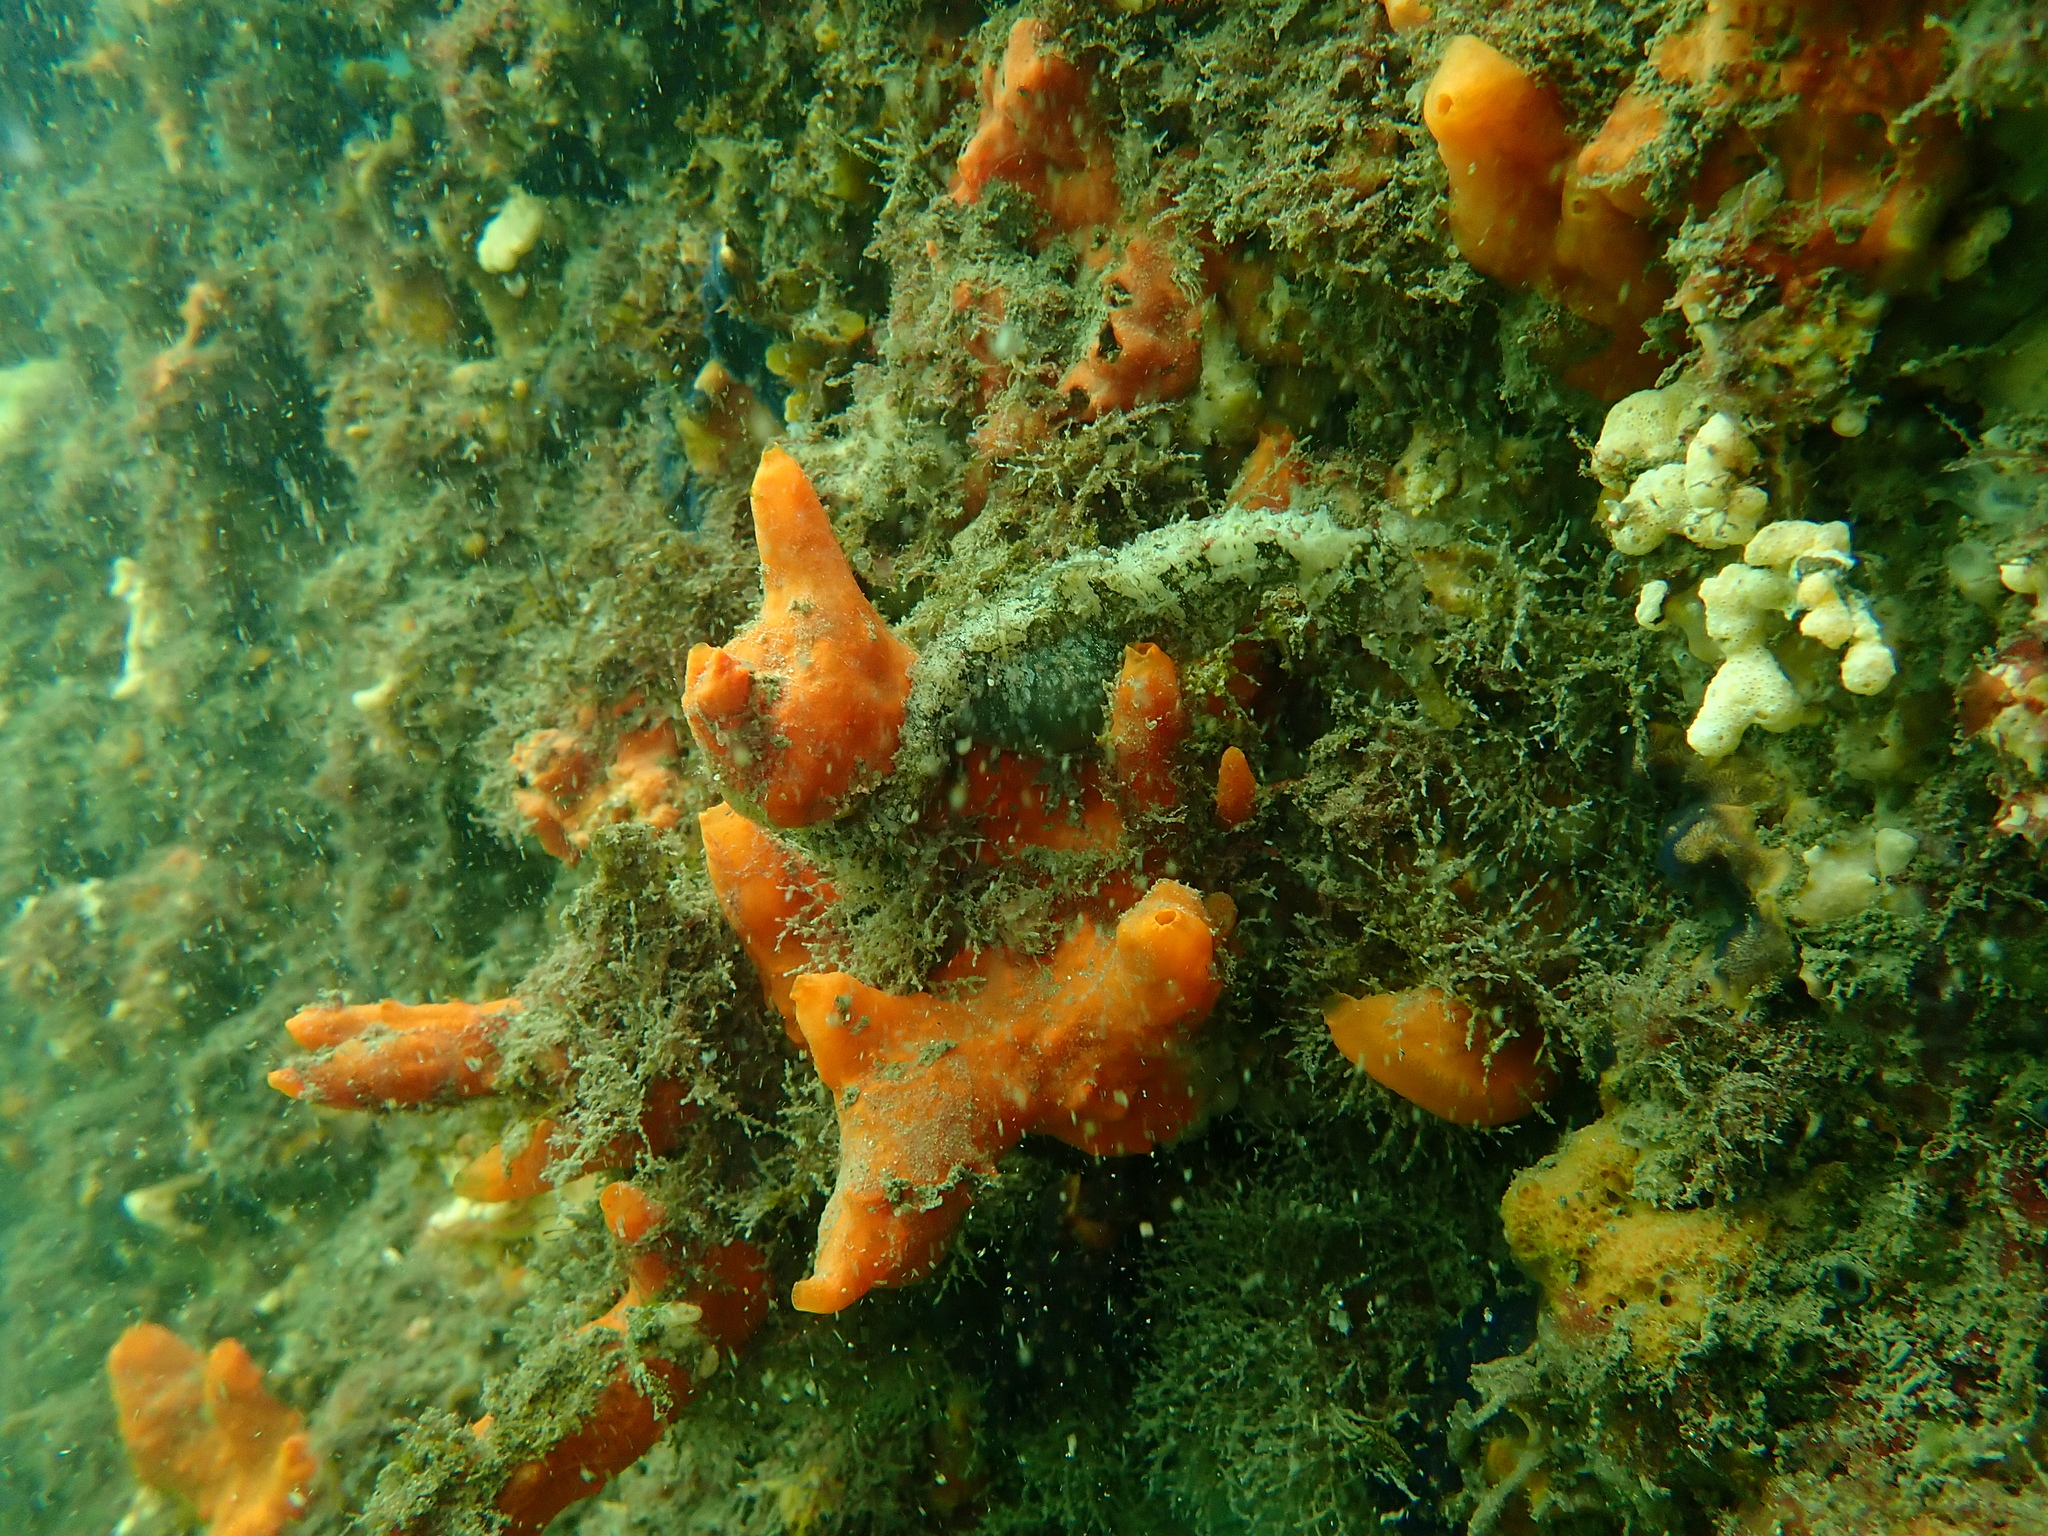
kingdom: Animalia
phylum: Chordata
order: Syngnathiformes
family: Syngnathidae
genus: Hippocampus
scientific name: Hippocampus whitei
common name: New holland seahorse
